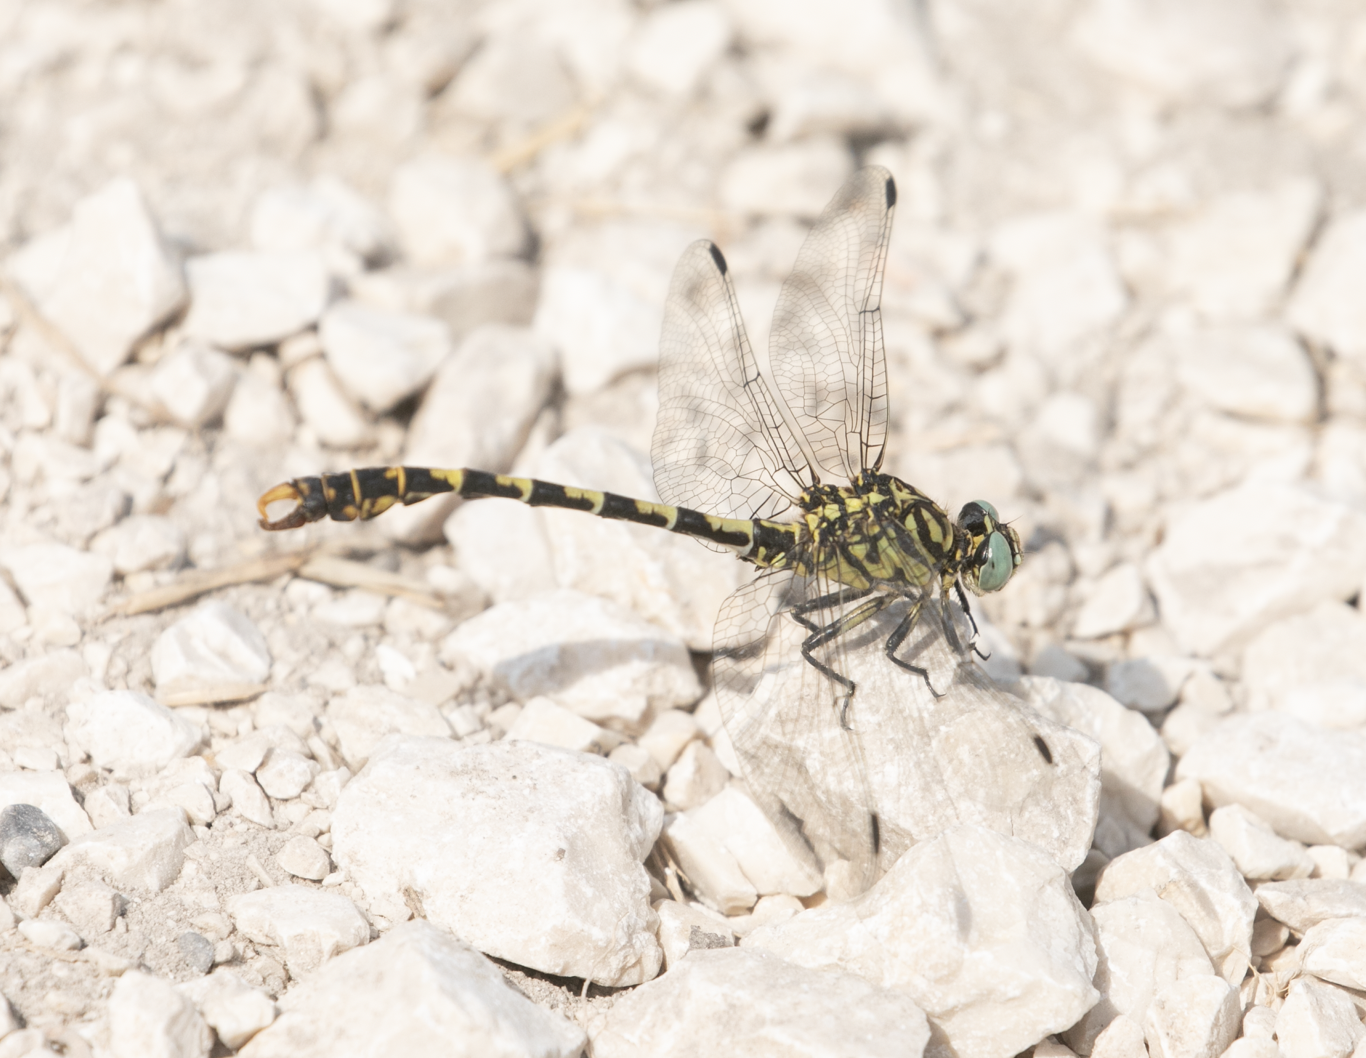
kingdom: Animalia
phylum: Arthropoda
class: Insecta
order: Odonata
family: Gomphidae
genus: Onychogomphus
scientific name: Onychogomphus forcipatus
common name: Small pincertail
